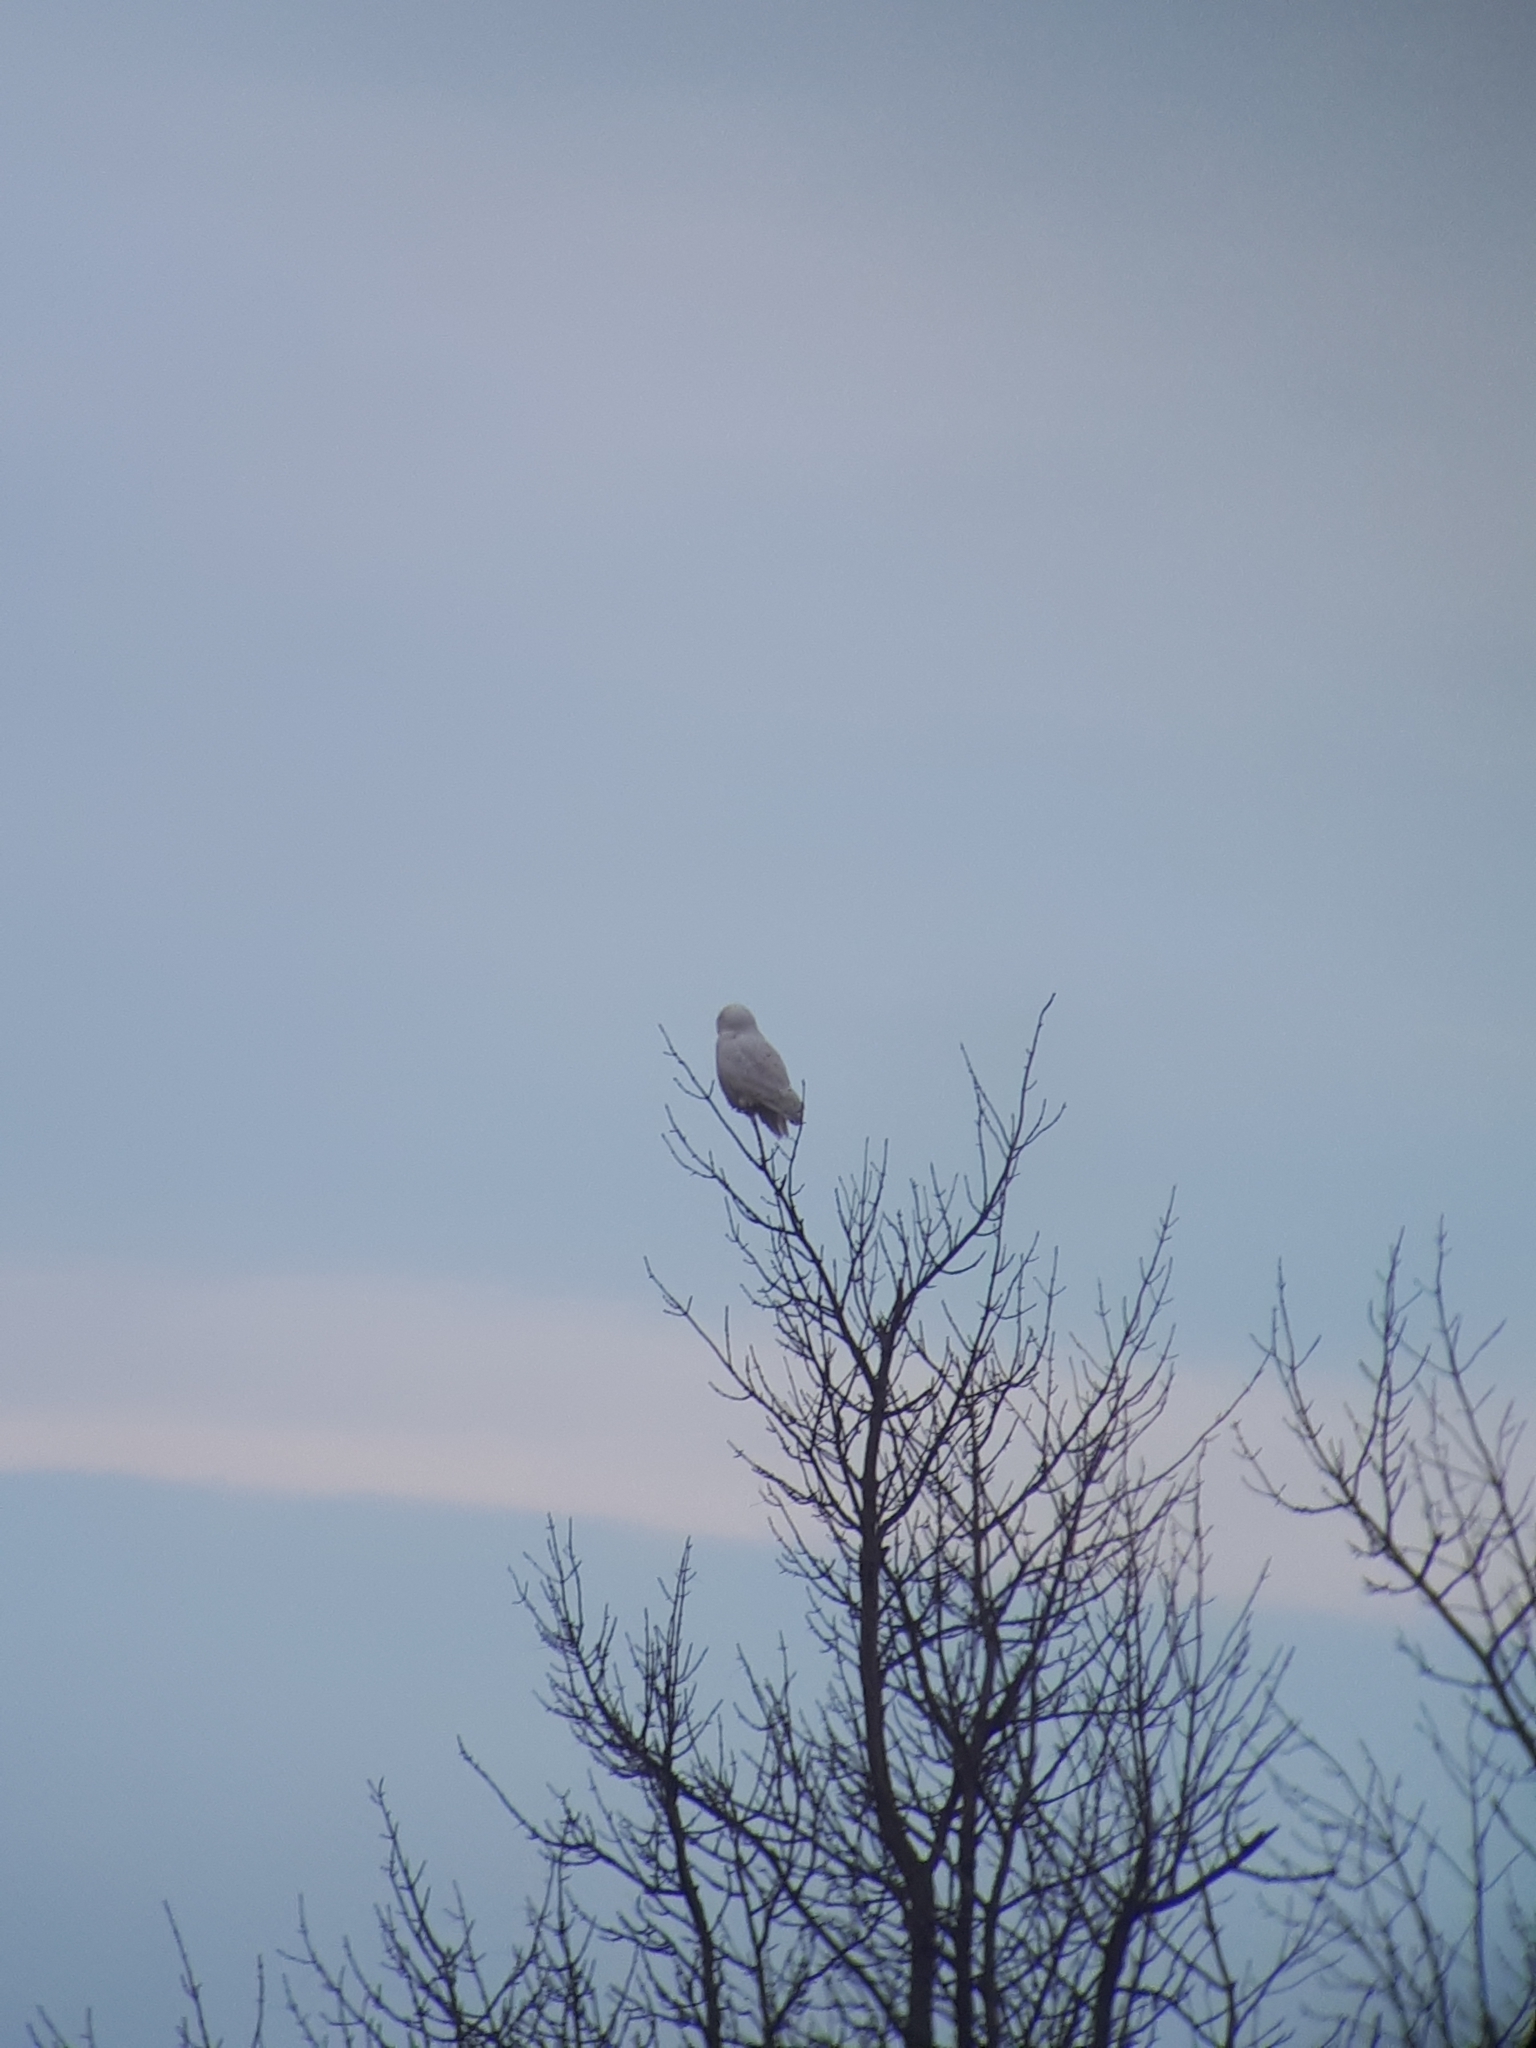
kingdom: Animalia
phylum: Chordata
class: Aves
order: Strigiformes
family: Strigidae
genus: Bubo
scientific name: Bubo scandiacus
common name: Snowy owl
